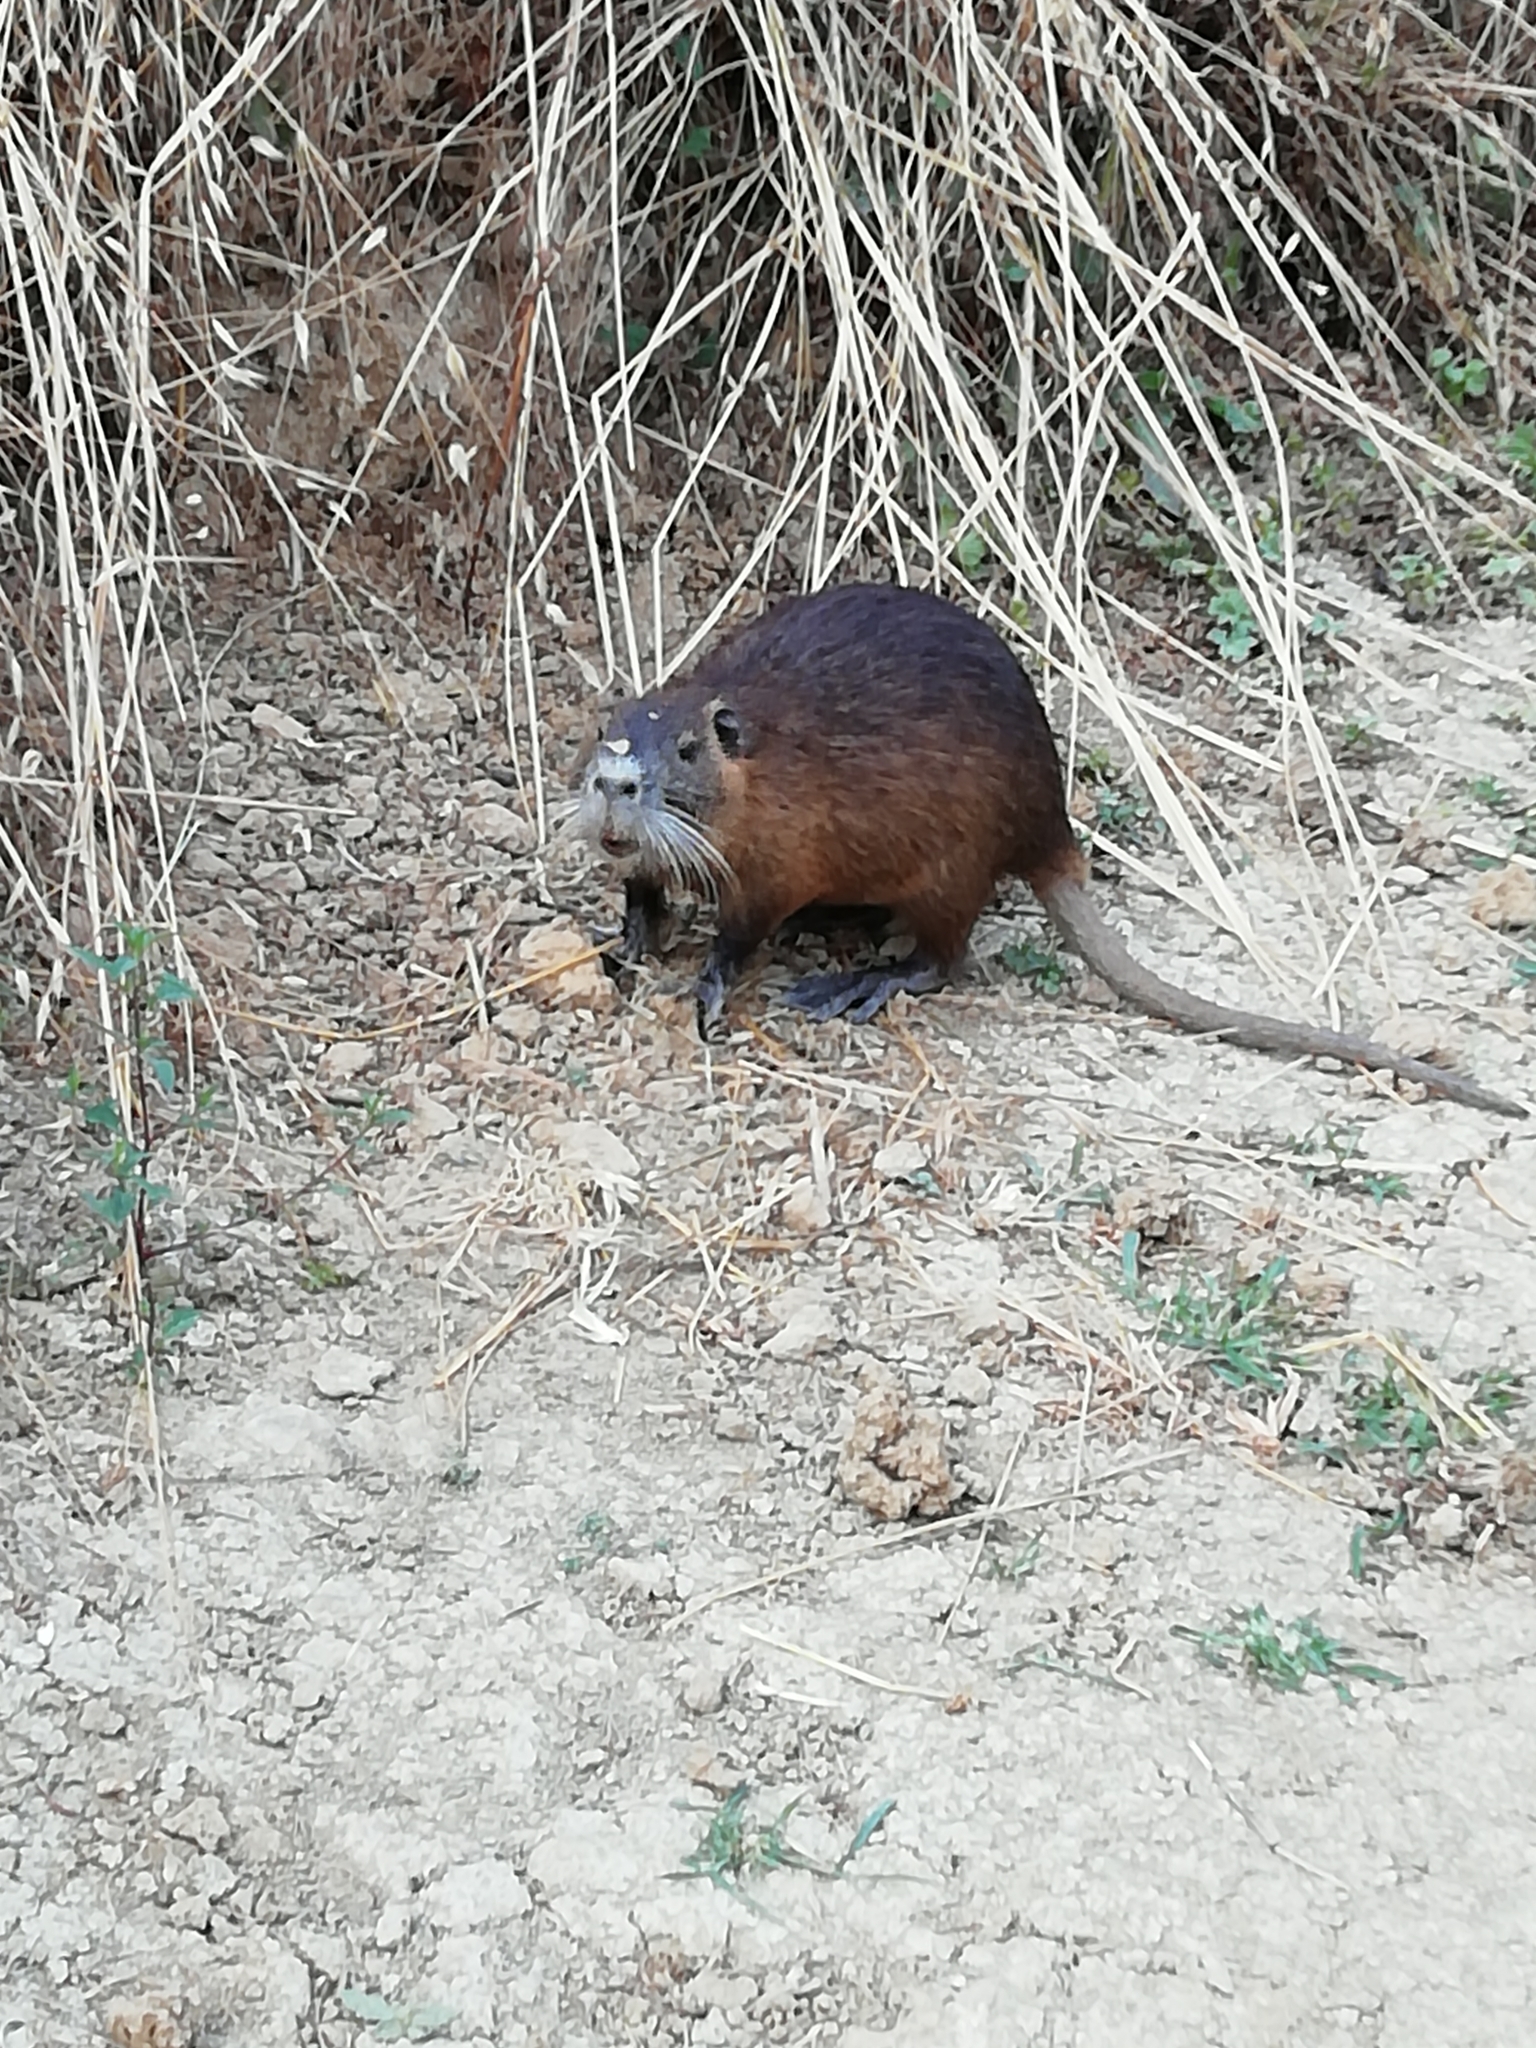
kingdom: Animalia
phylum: Chordata
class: Mammalia
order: Rodentia
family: Myocastoridae
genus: Myocastor
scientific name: Myocastor coypus
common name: Coypu
